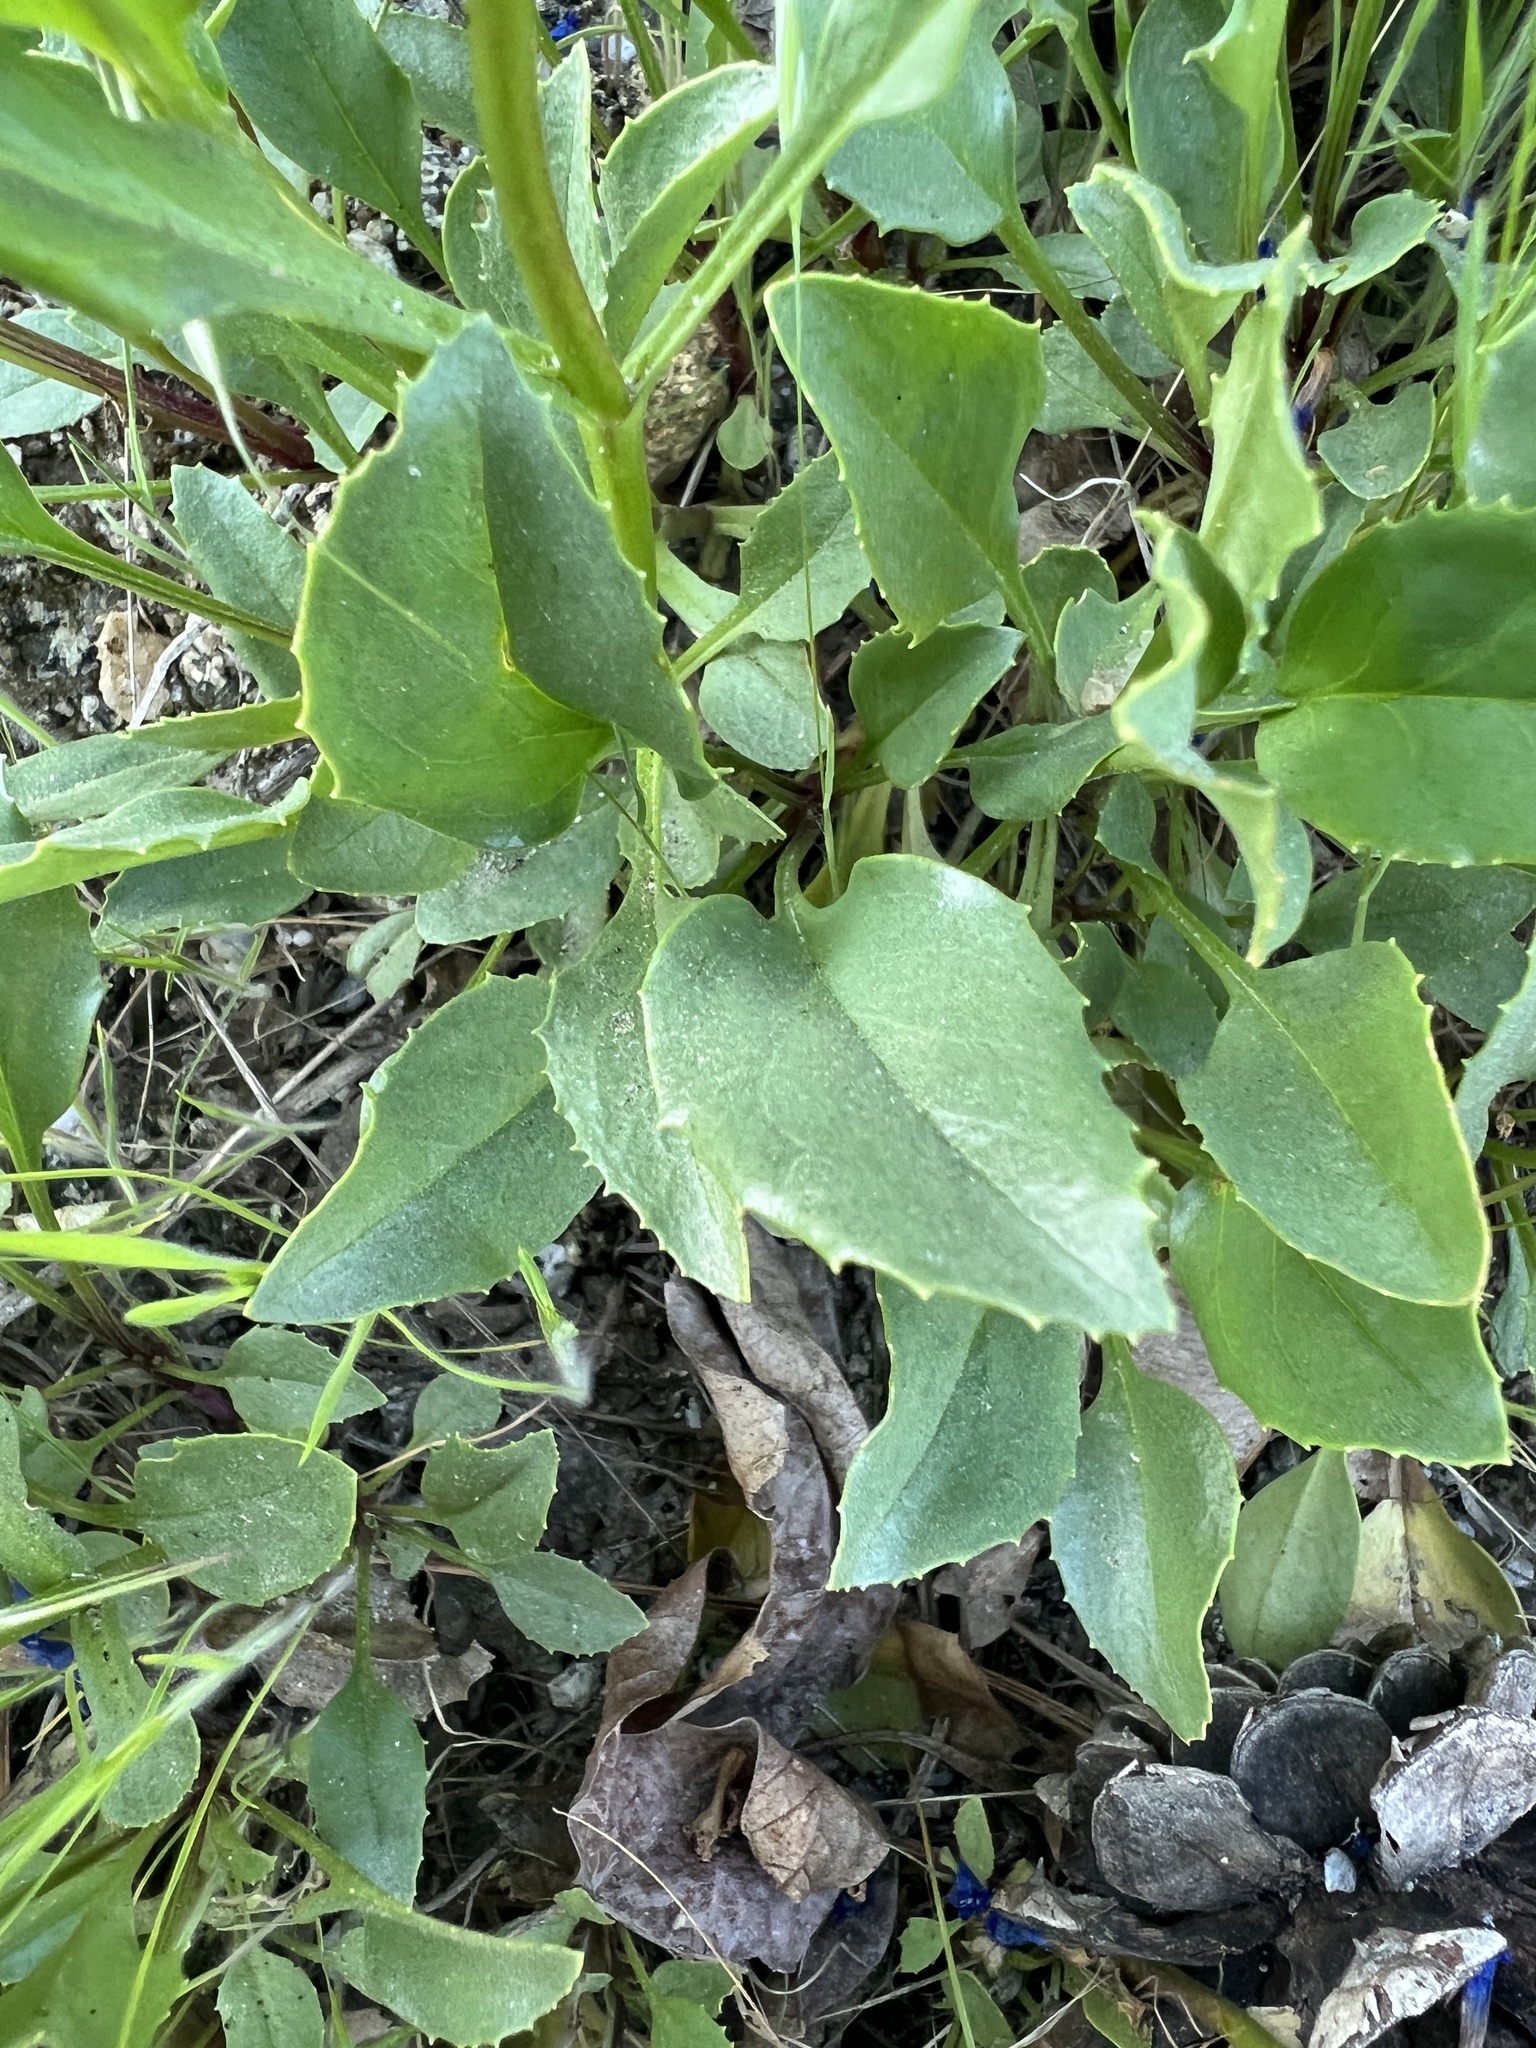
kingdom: Plantae
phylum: Tracheophyta
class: Magnoliopsida
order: Lamiales
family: Plantaginaceae
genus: Penstemon
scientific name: Penstemon pruinosus
